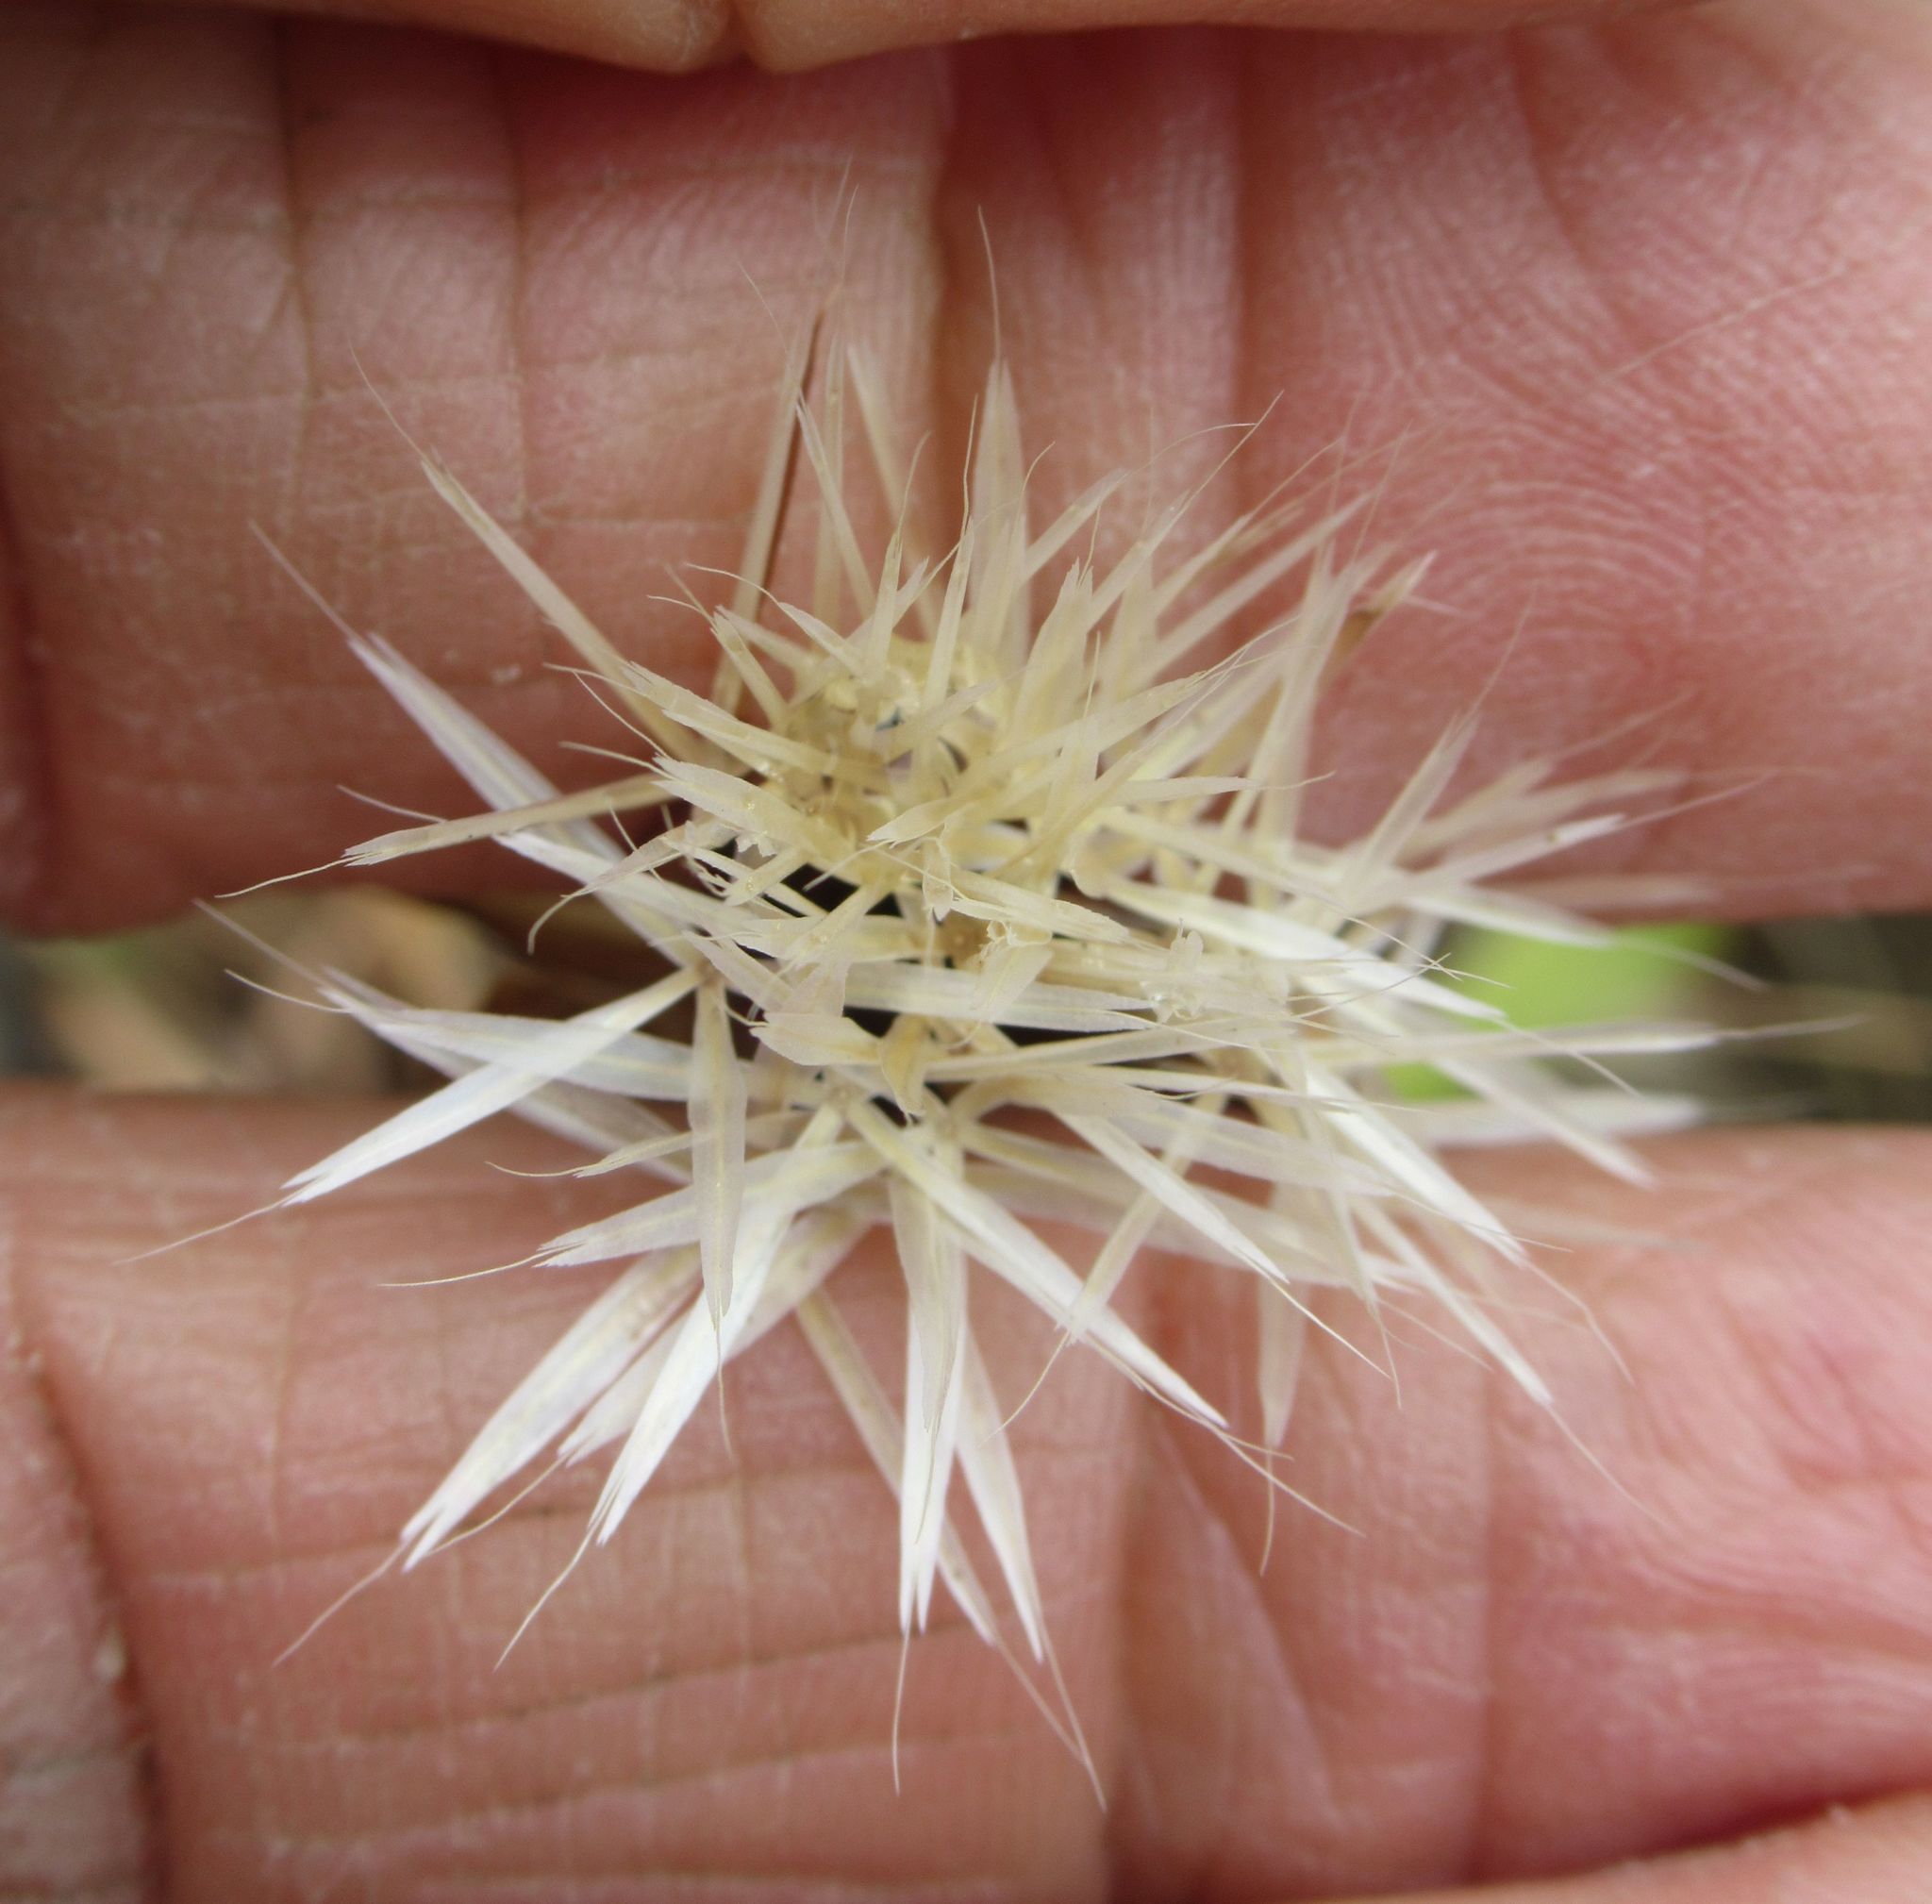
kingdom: Plantae
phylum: Tracheophyta
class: Magnoliopsida
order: Asterales
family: Asteraceae
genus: Microseris
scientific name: Microseris lindleyi
